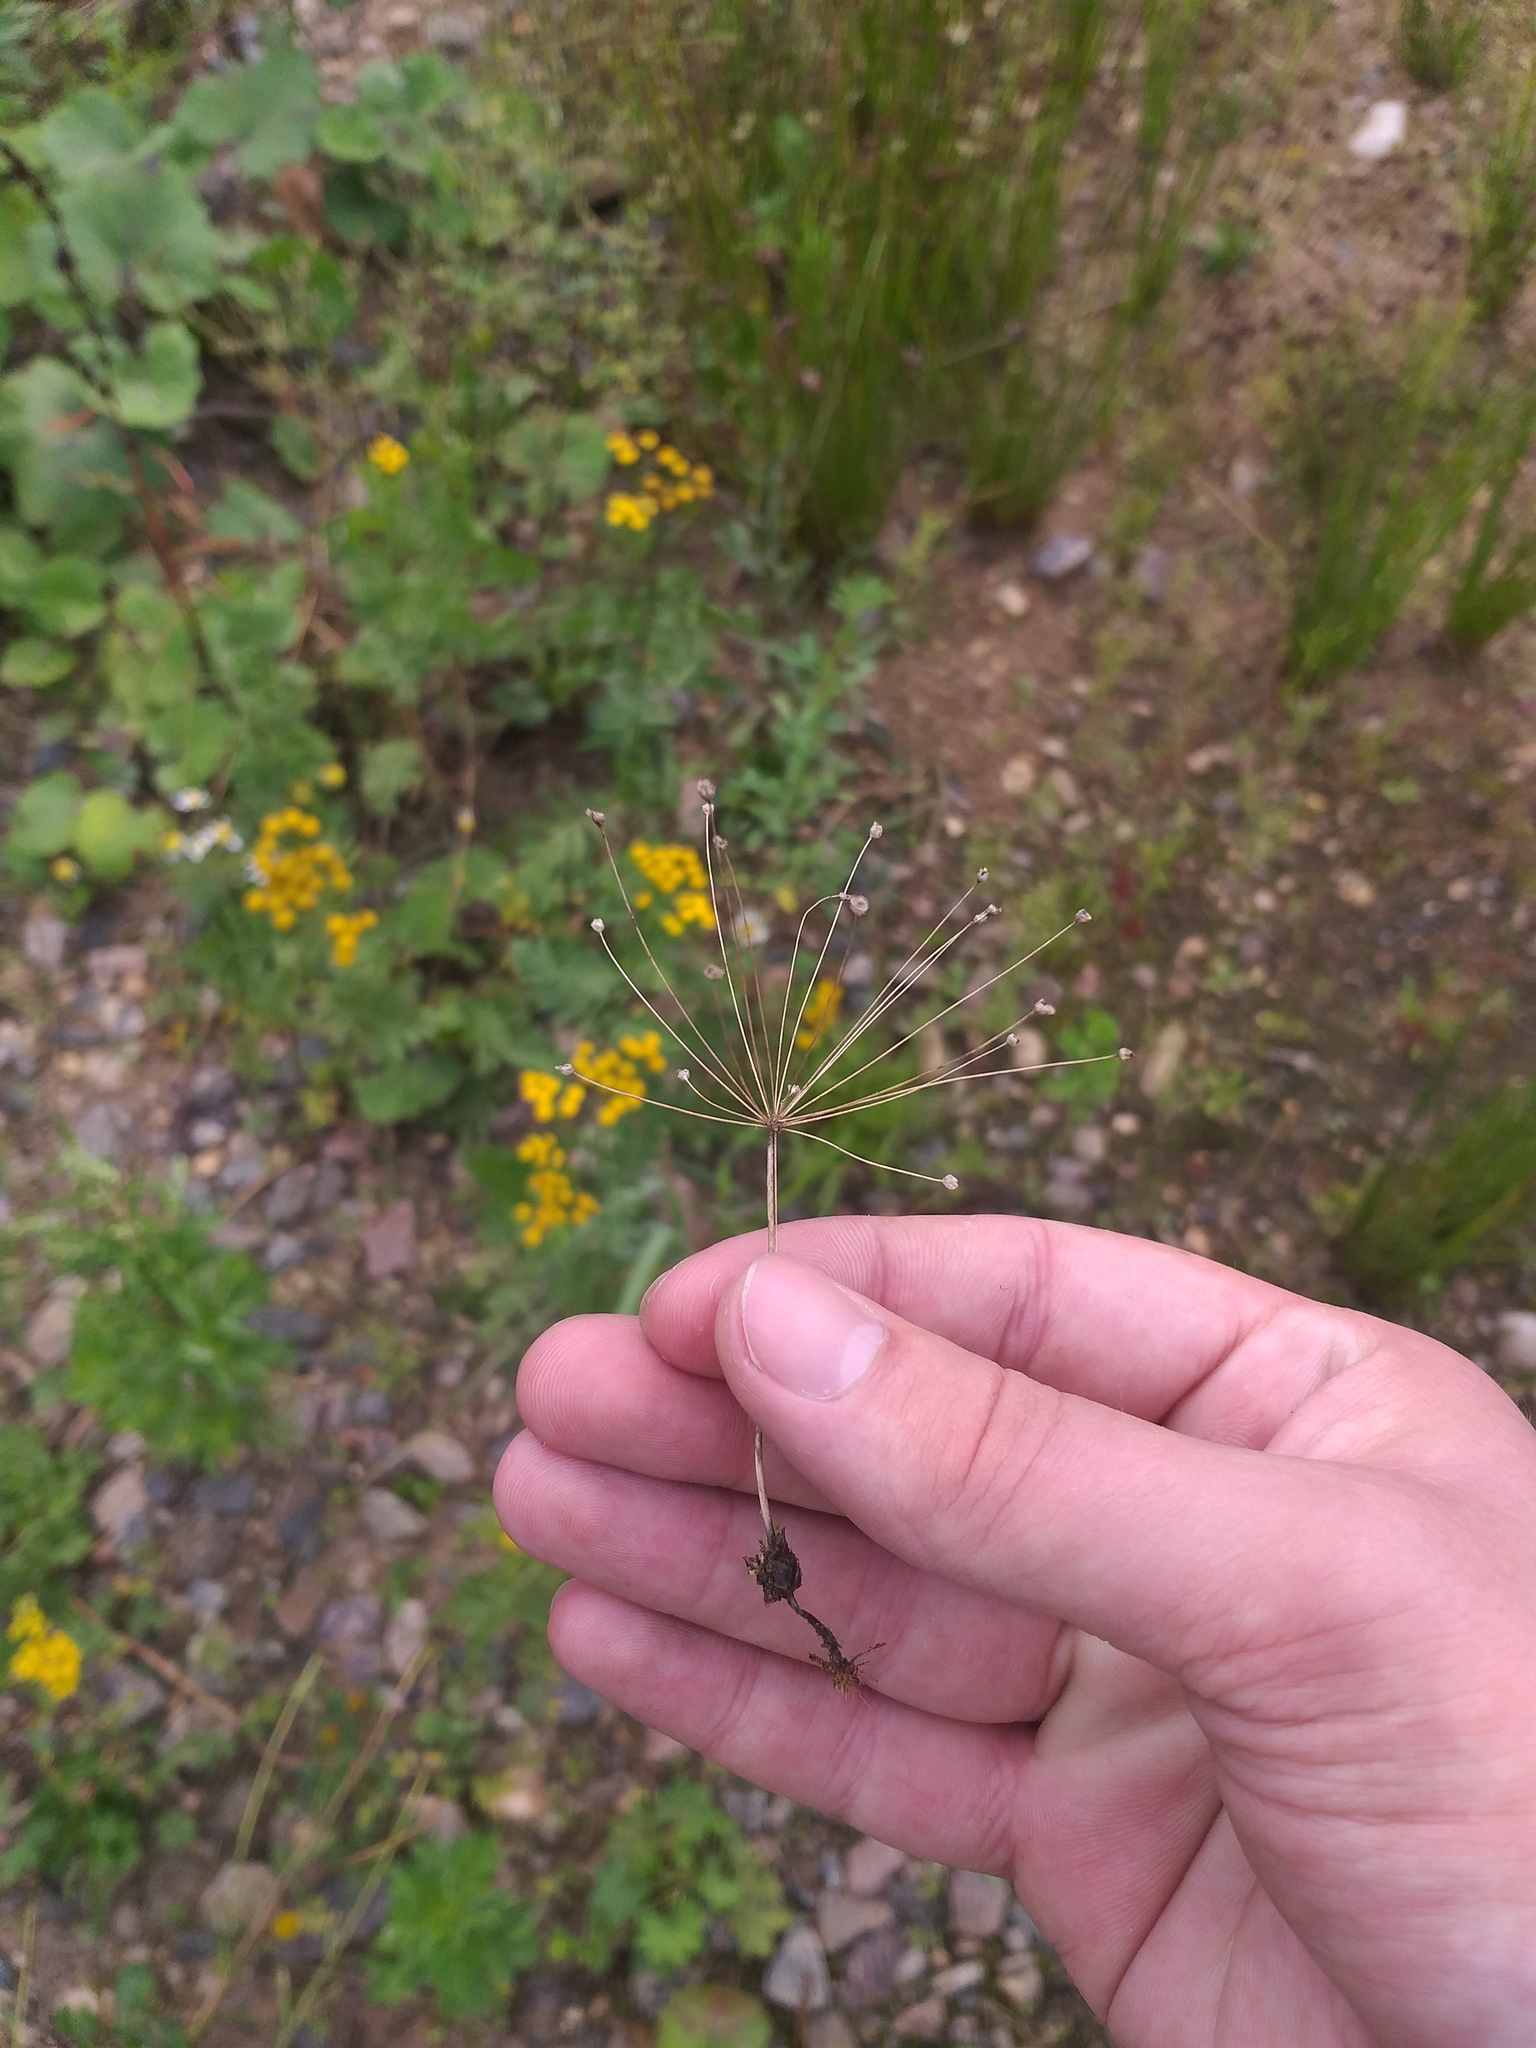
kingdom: Plantae
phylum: Tracheophyta
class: Magnoliopsida
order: Ericales
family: Primulaceae
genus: Androsace
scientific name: Androsace filiformis
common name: Filiform rock jasmine
